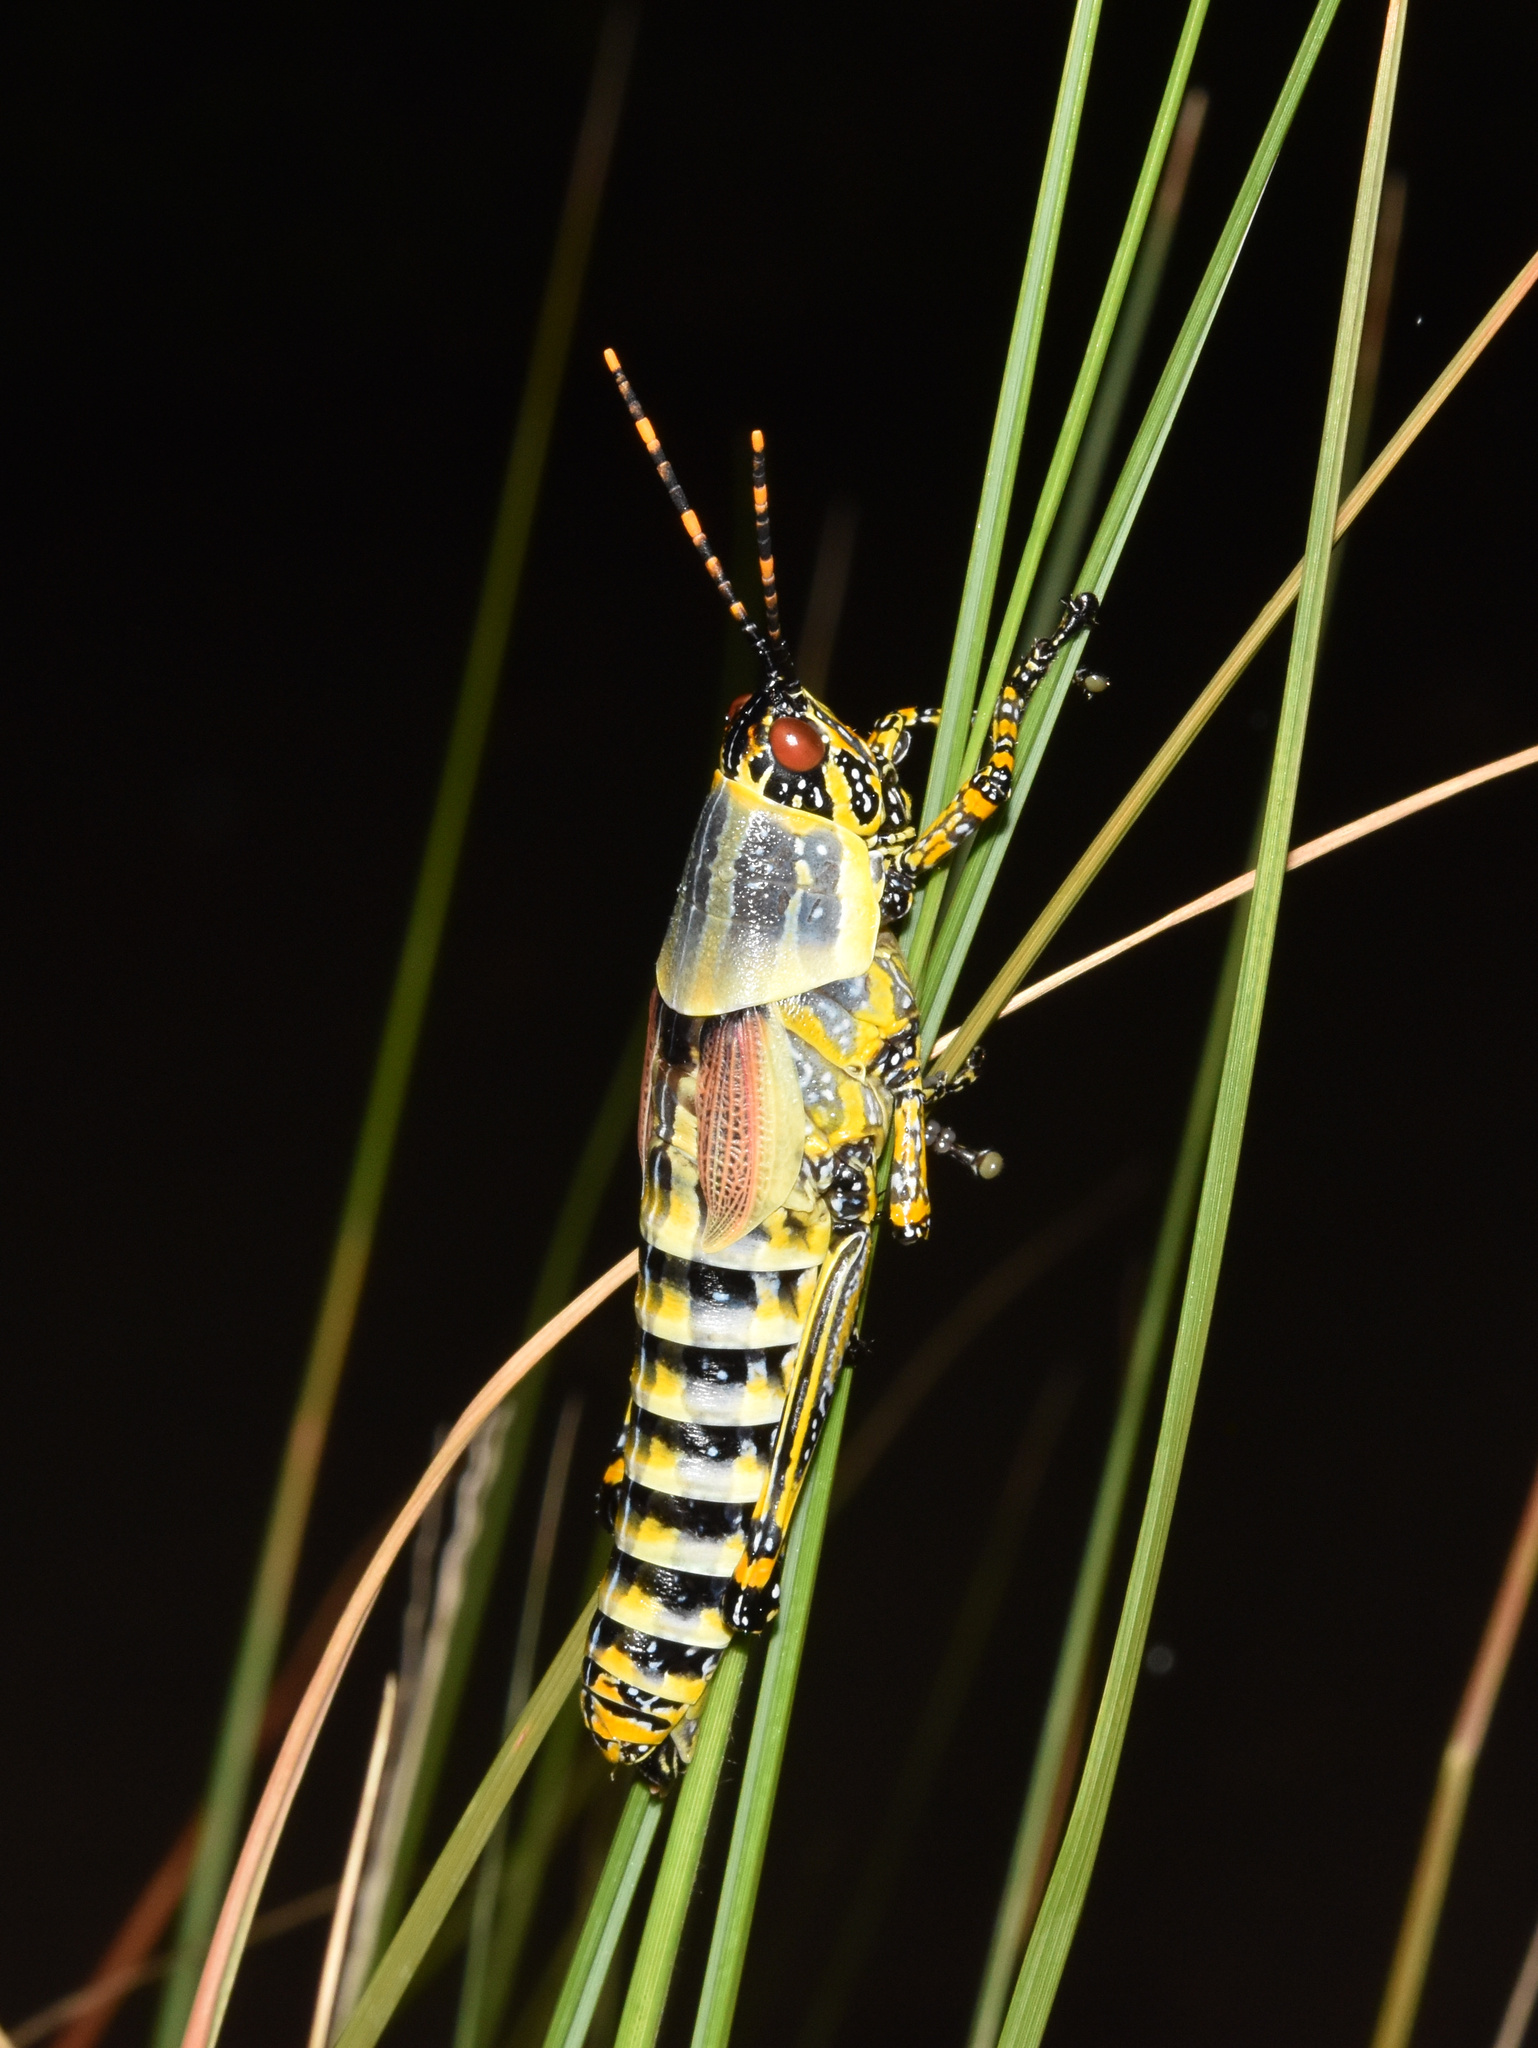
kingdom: Animalia
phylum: Arthropoda
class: Insecta
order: Orthoptera
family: Pyrgomorphidae
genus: Zonocerus
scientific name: Zonocerus elegans
